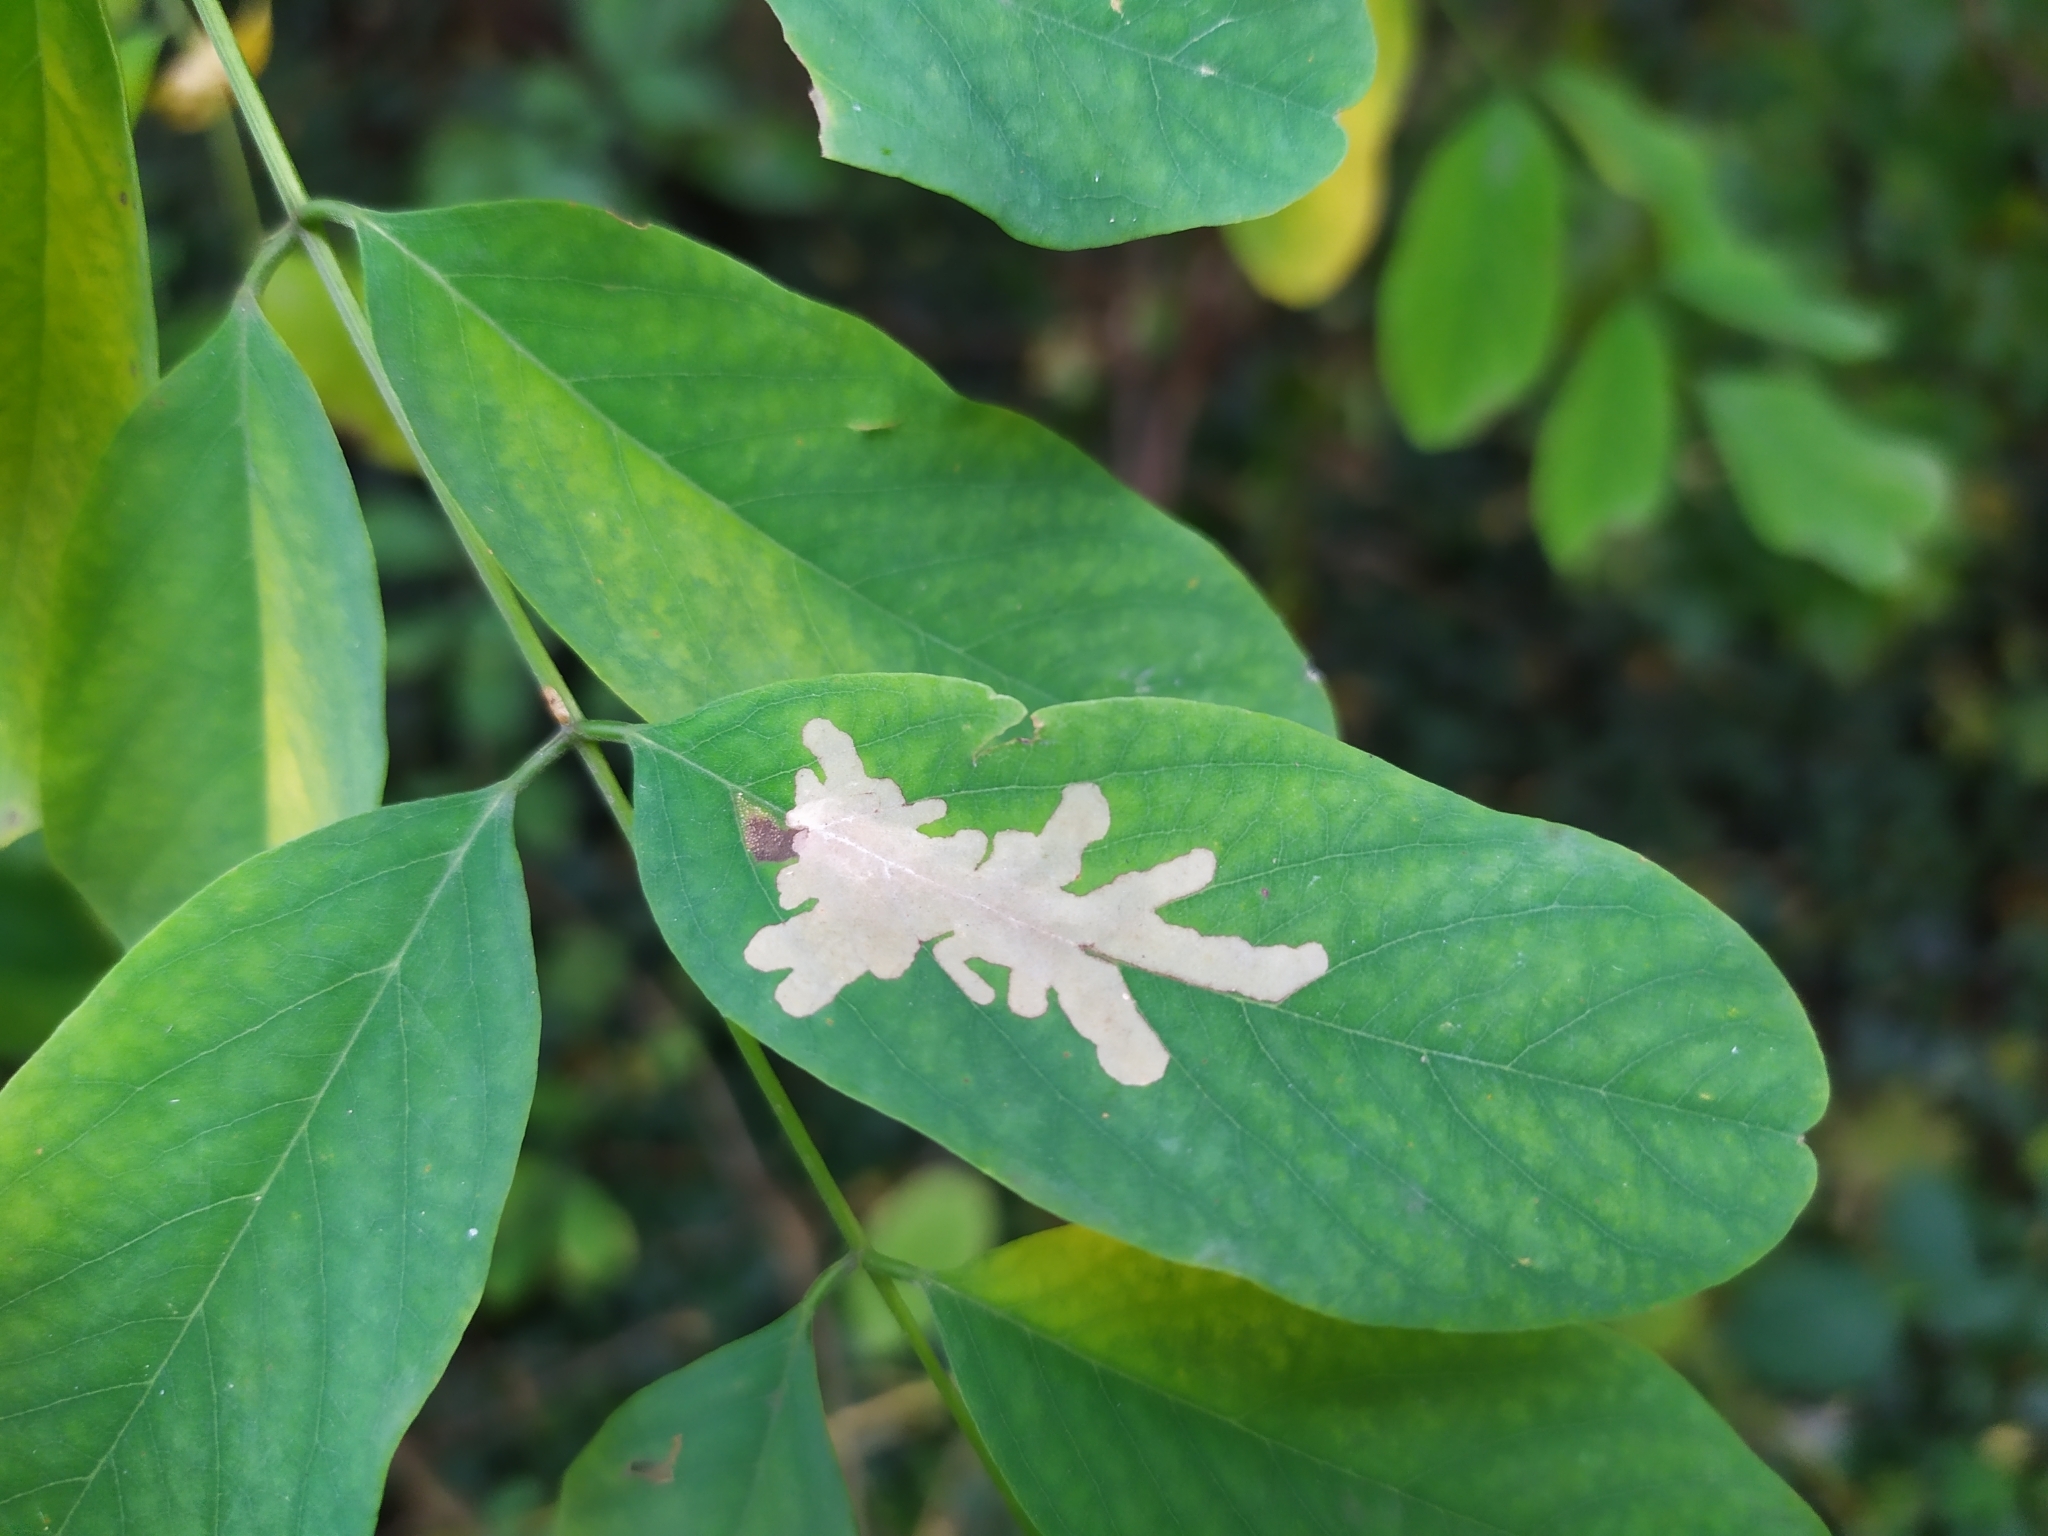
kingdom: Animalia
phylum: Arthropoda
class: Insecta
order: Lepidoptera
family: Gracillariidae
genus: Parectopa
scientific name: Parectopa robiniella
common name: Locust digitate leafminer
